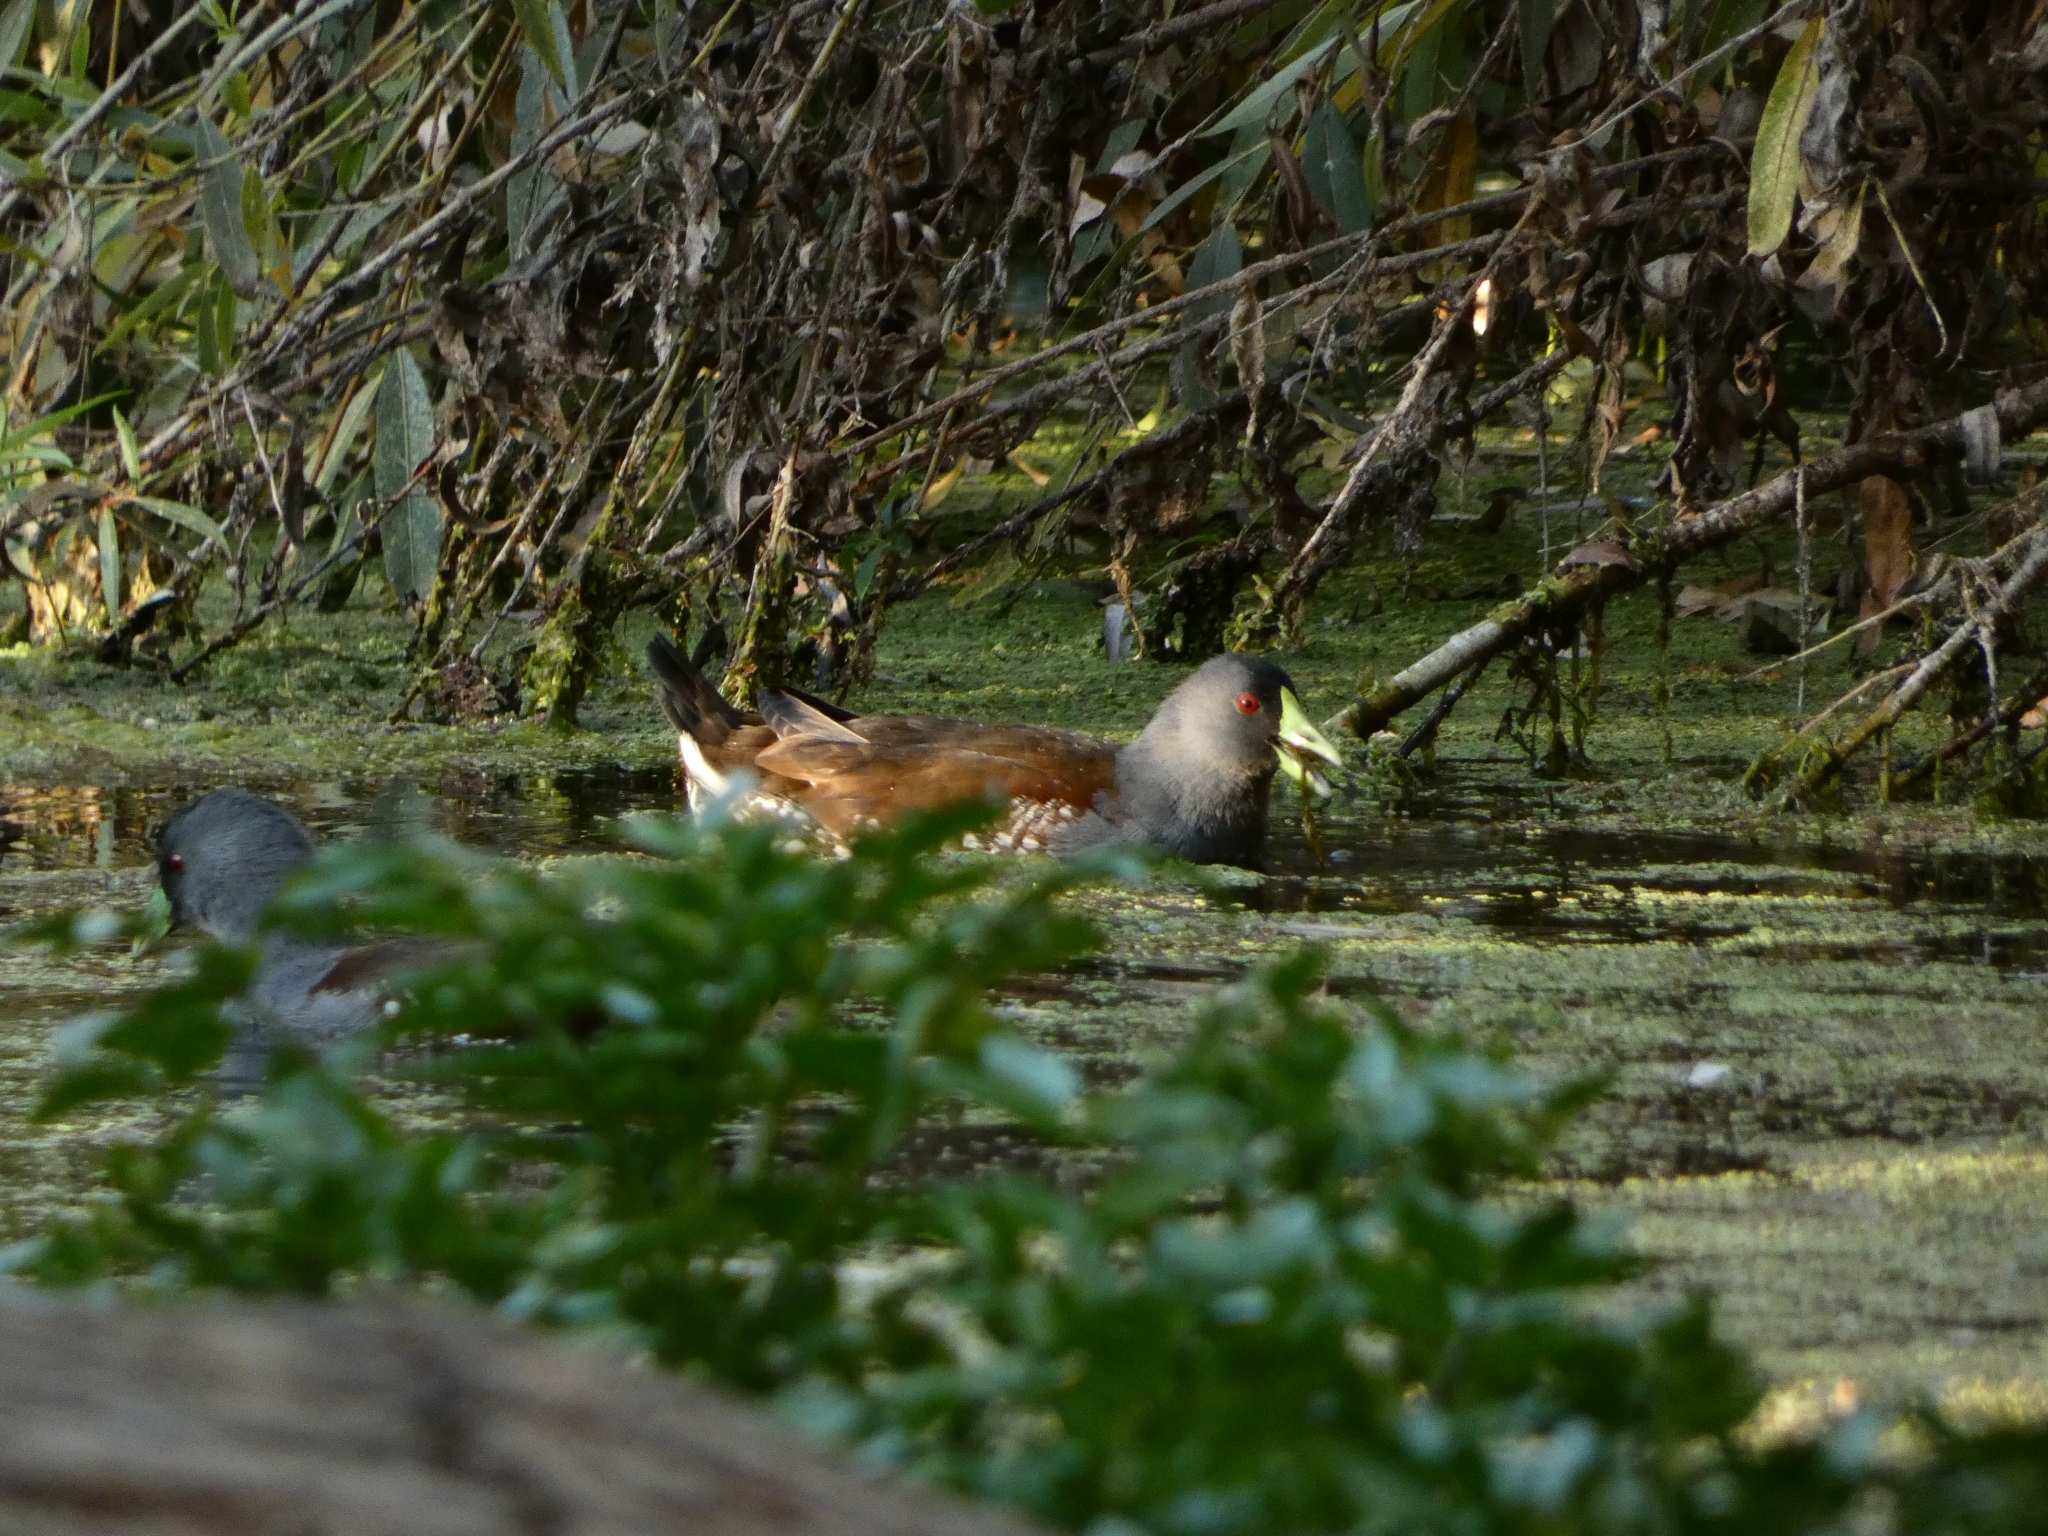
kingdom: Animalia
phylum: Chordata
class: Aves
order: Gruiformes
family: Rallidae
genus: Gallinula
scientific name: Gallinula melanops
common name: Spot-flanked gallinule
